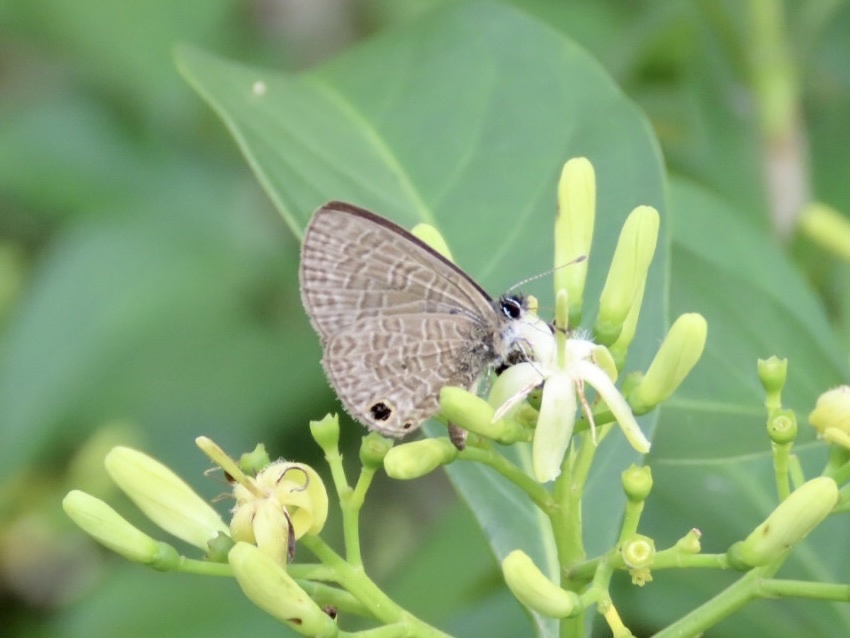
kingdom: Animalia
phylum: Arthropoda
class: Insecta
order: Lepidoptera
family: Lycaenidae
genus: Prosotas
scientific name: Prosotas dubiosa
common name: Tailless lineblue
